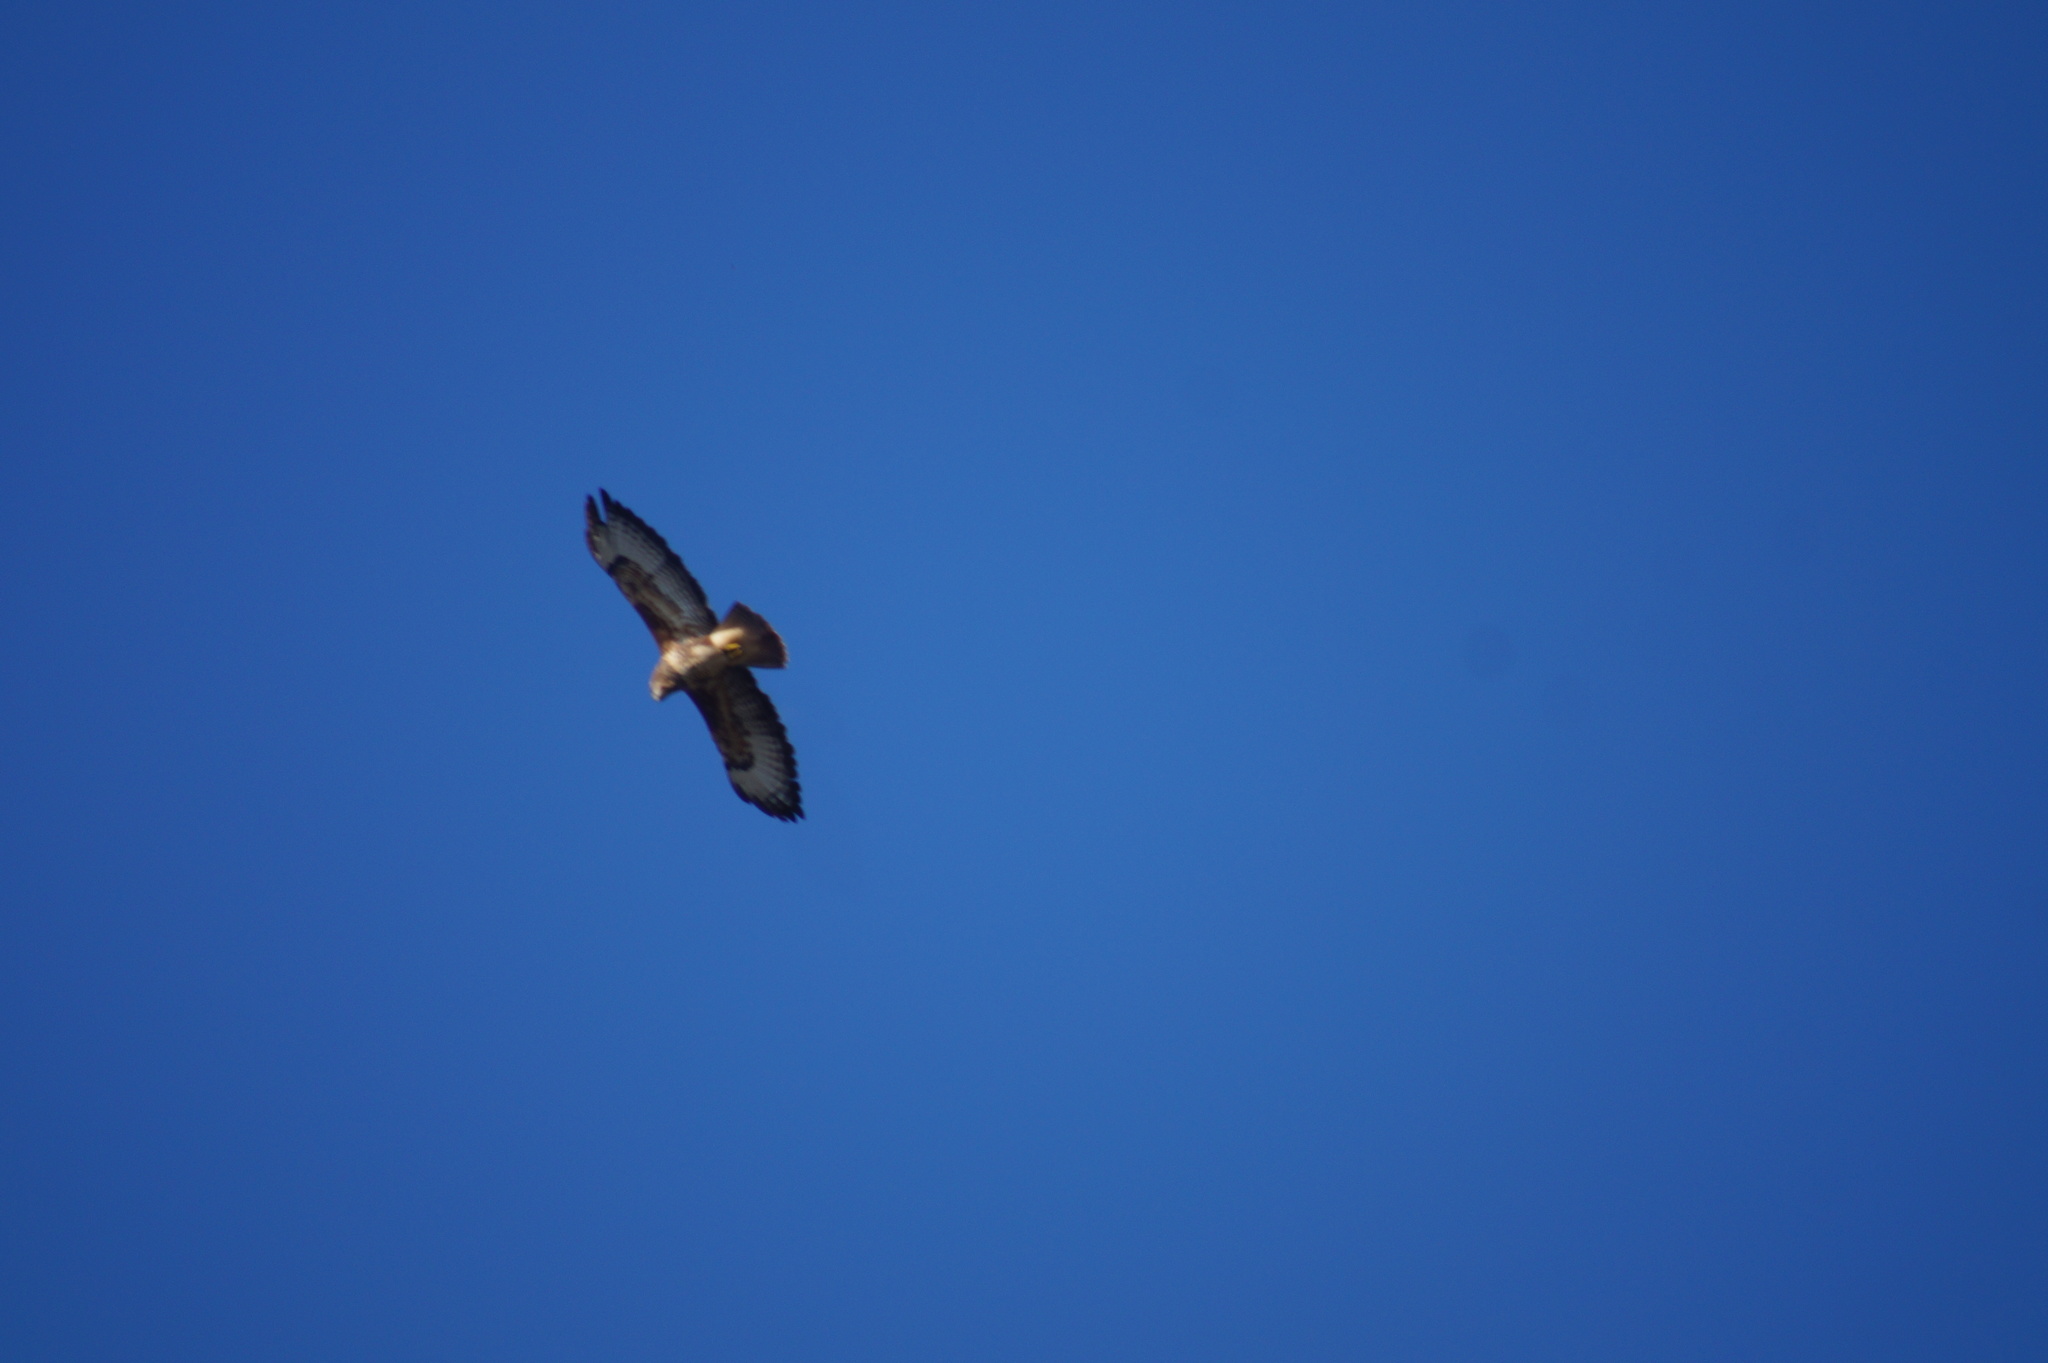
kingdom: Animalia
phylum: Chordata
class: Aves
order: Accipitriformes
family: Accipitridae
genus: Buteo
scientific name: Buteo buteo
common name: Common buzzard
